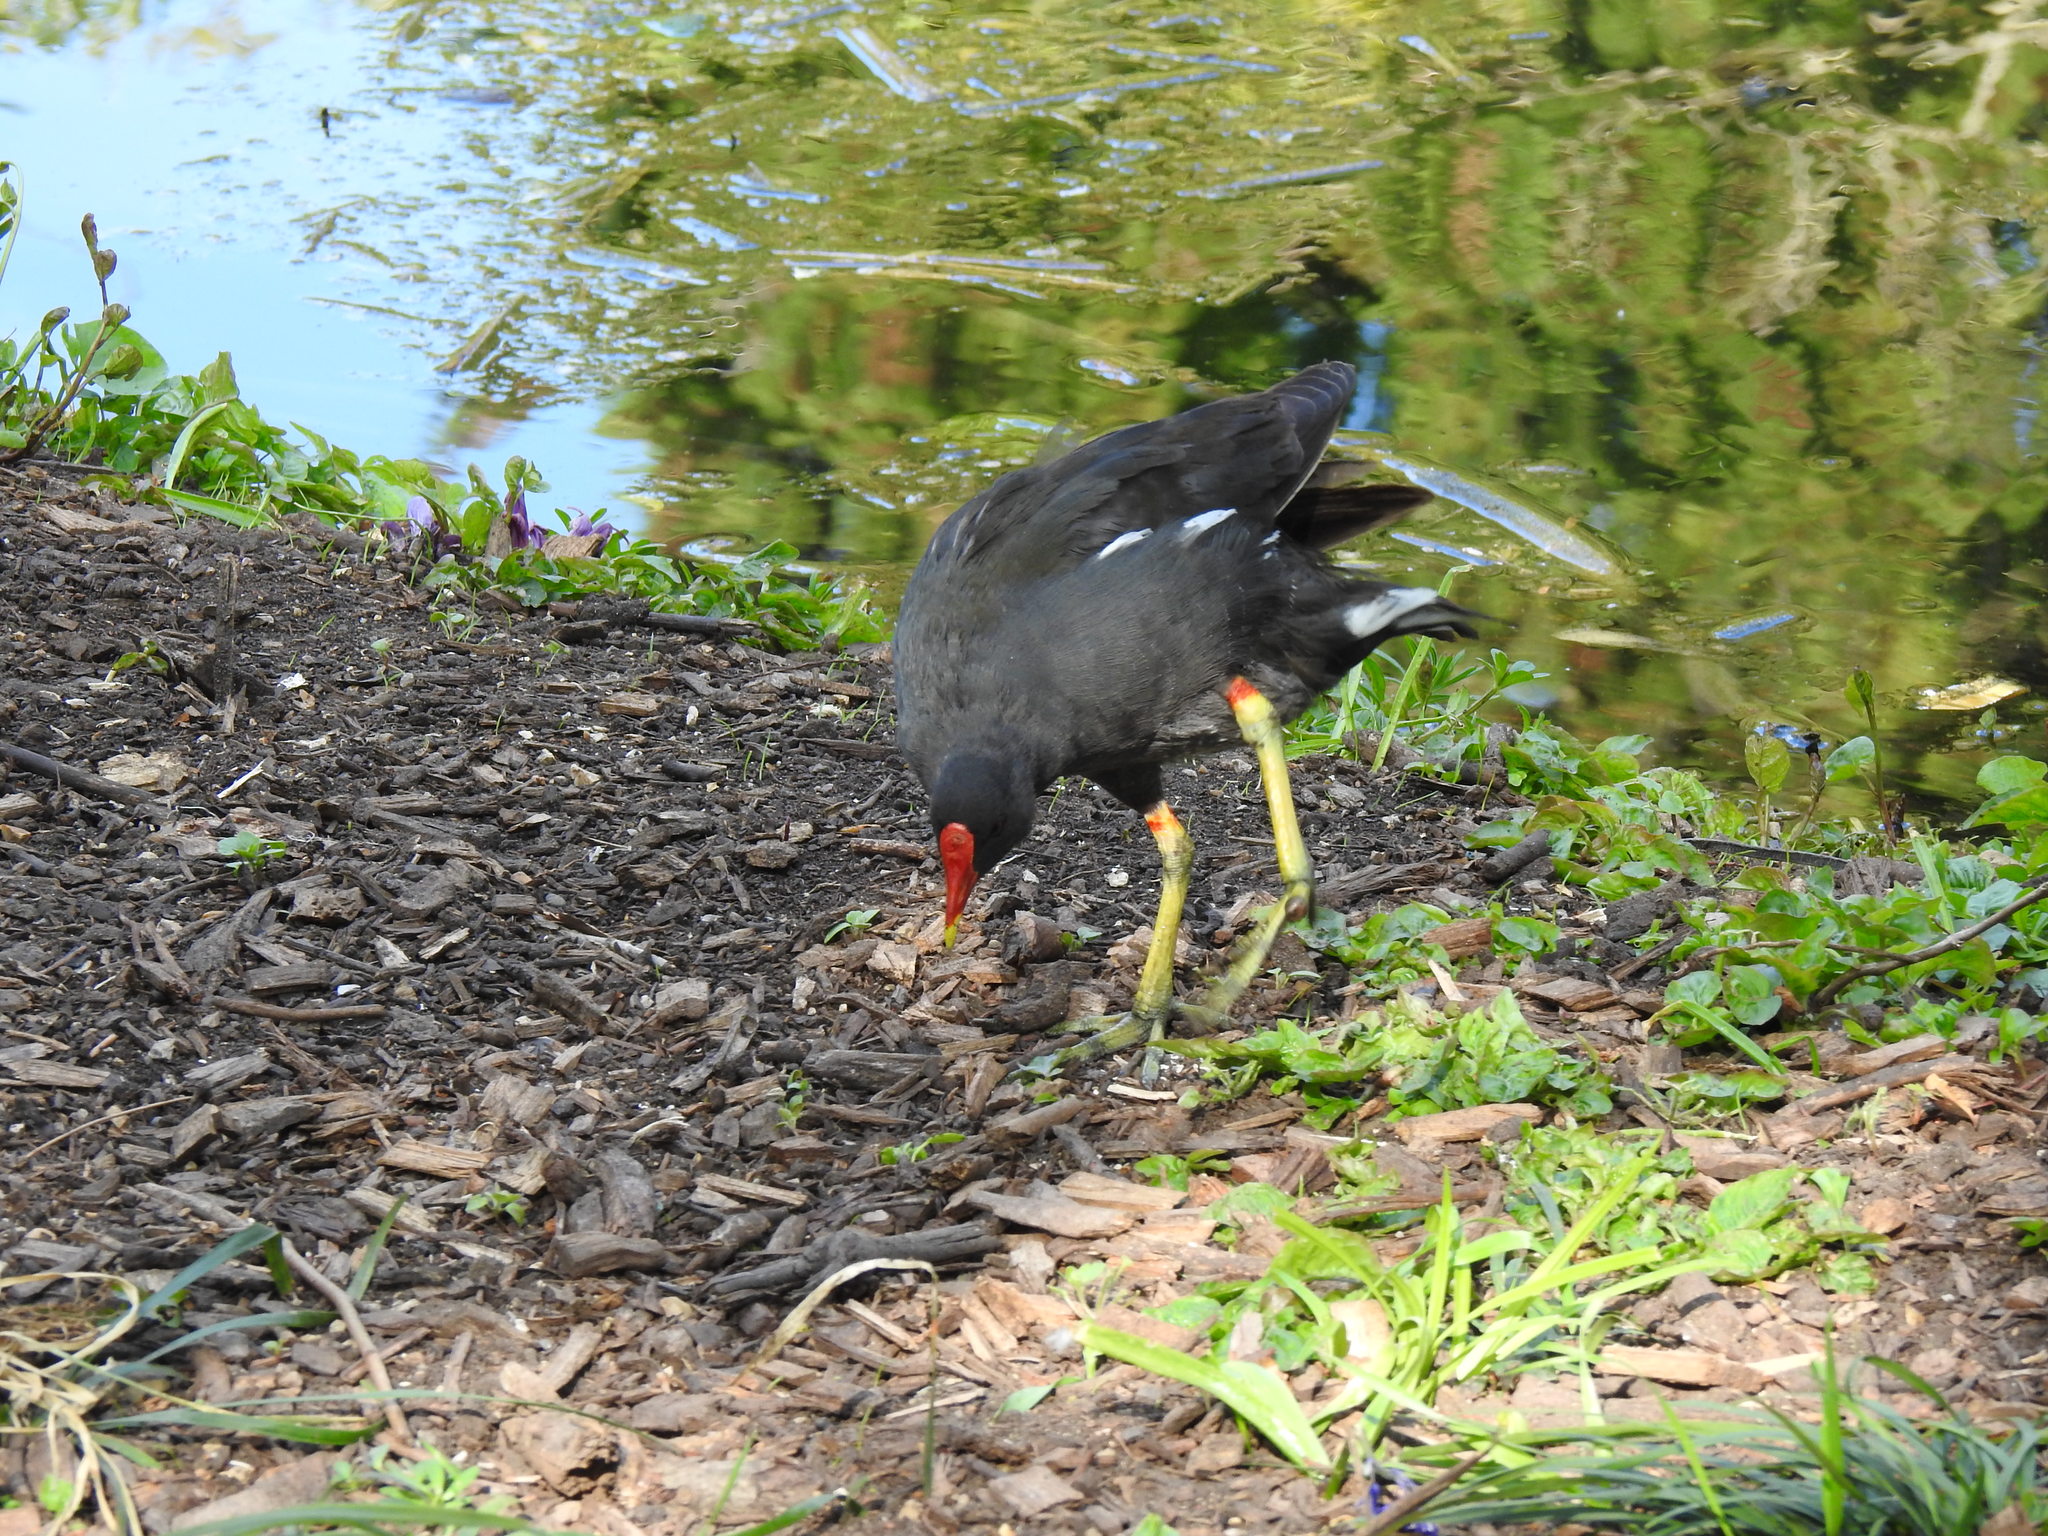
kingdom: Animalia
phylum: Chordata
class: Aves
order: Gruiformes
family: Rallidae
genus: Gallinula
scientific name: Gallinula chloropus
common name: Common moorhen
